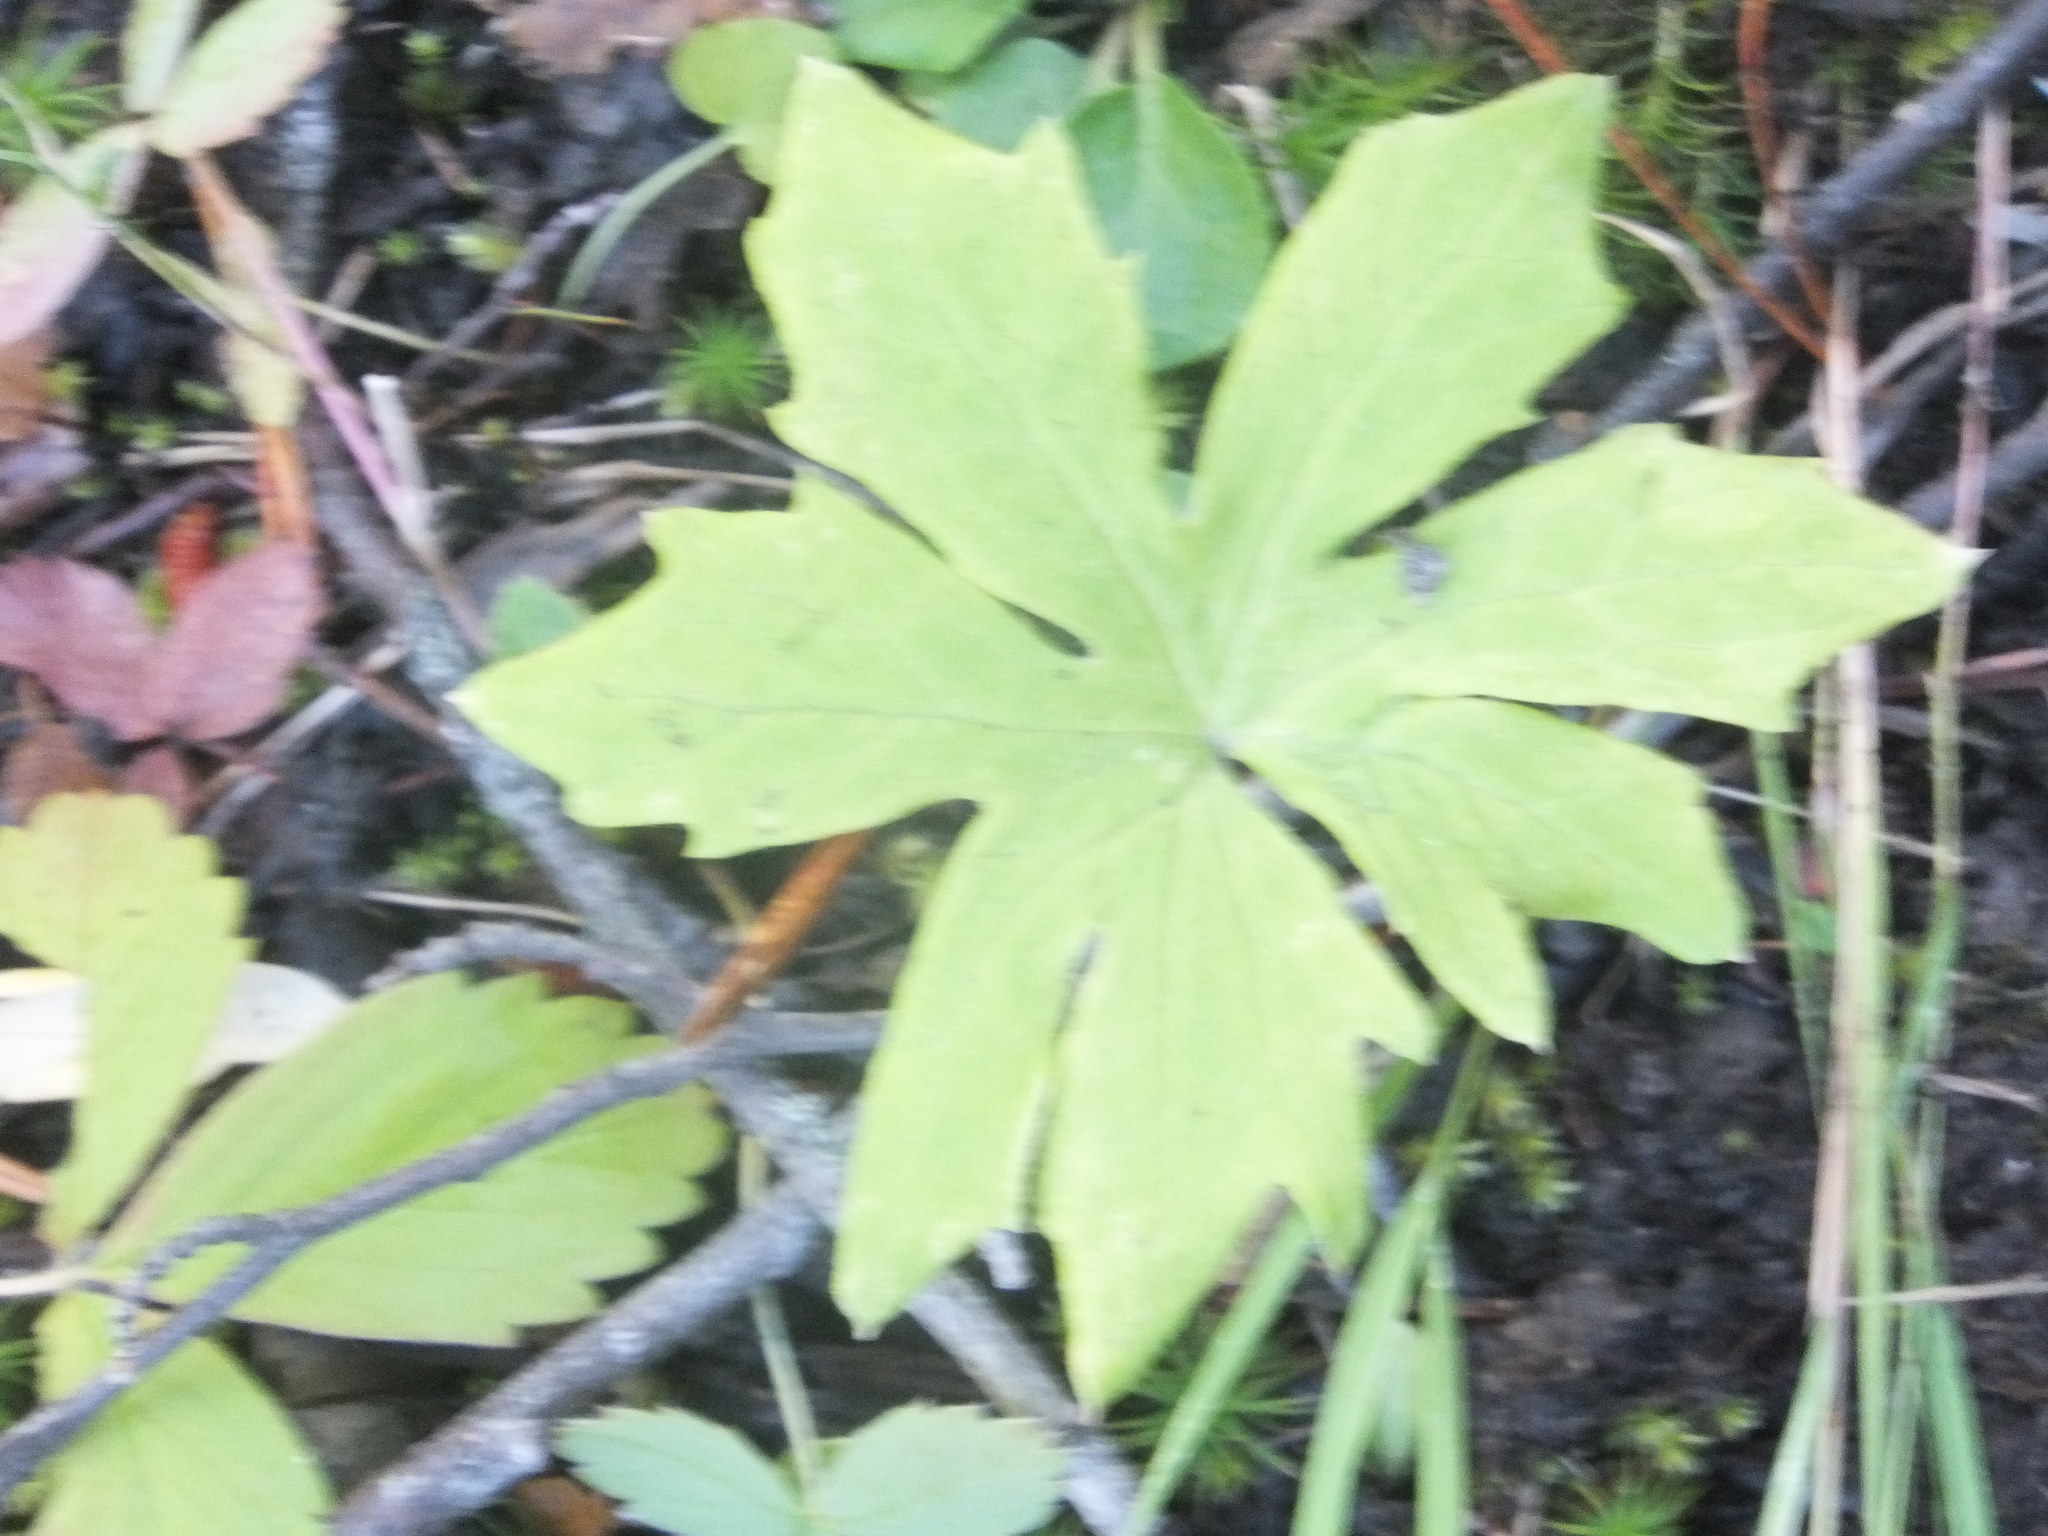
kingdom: Plantae
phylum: Tracheophyta
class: Magnoliopsida
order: Asterales
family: Asteraceae
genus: Petasites
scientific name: Petasites frigidus
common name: Arctic butterbur
